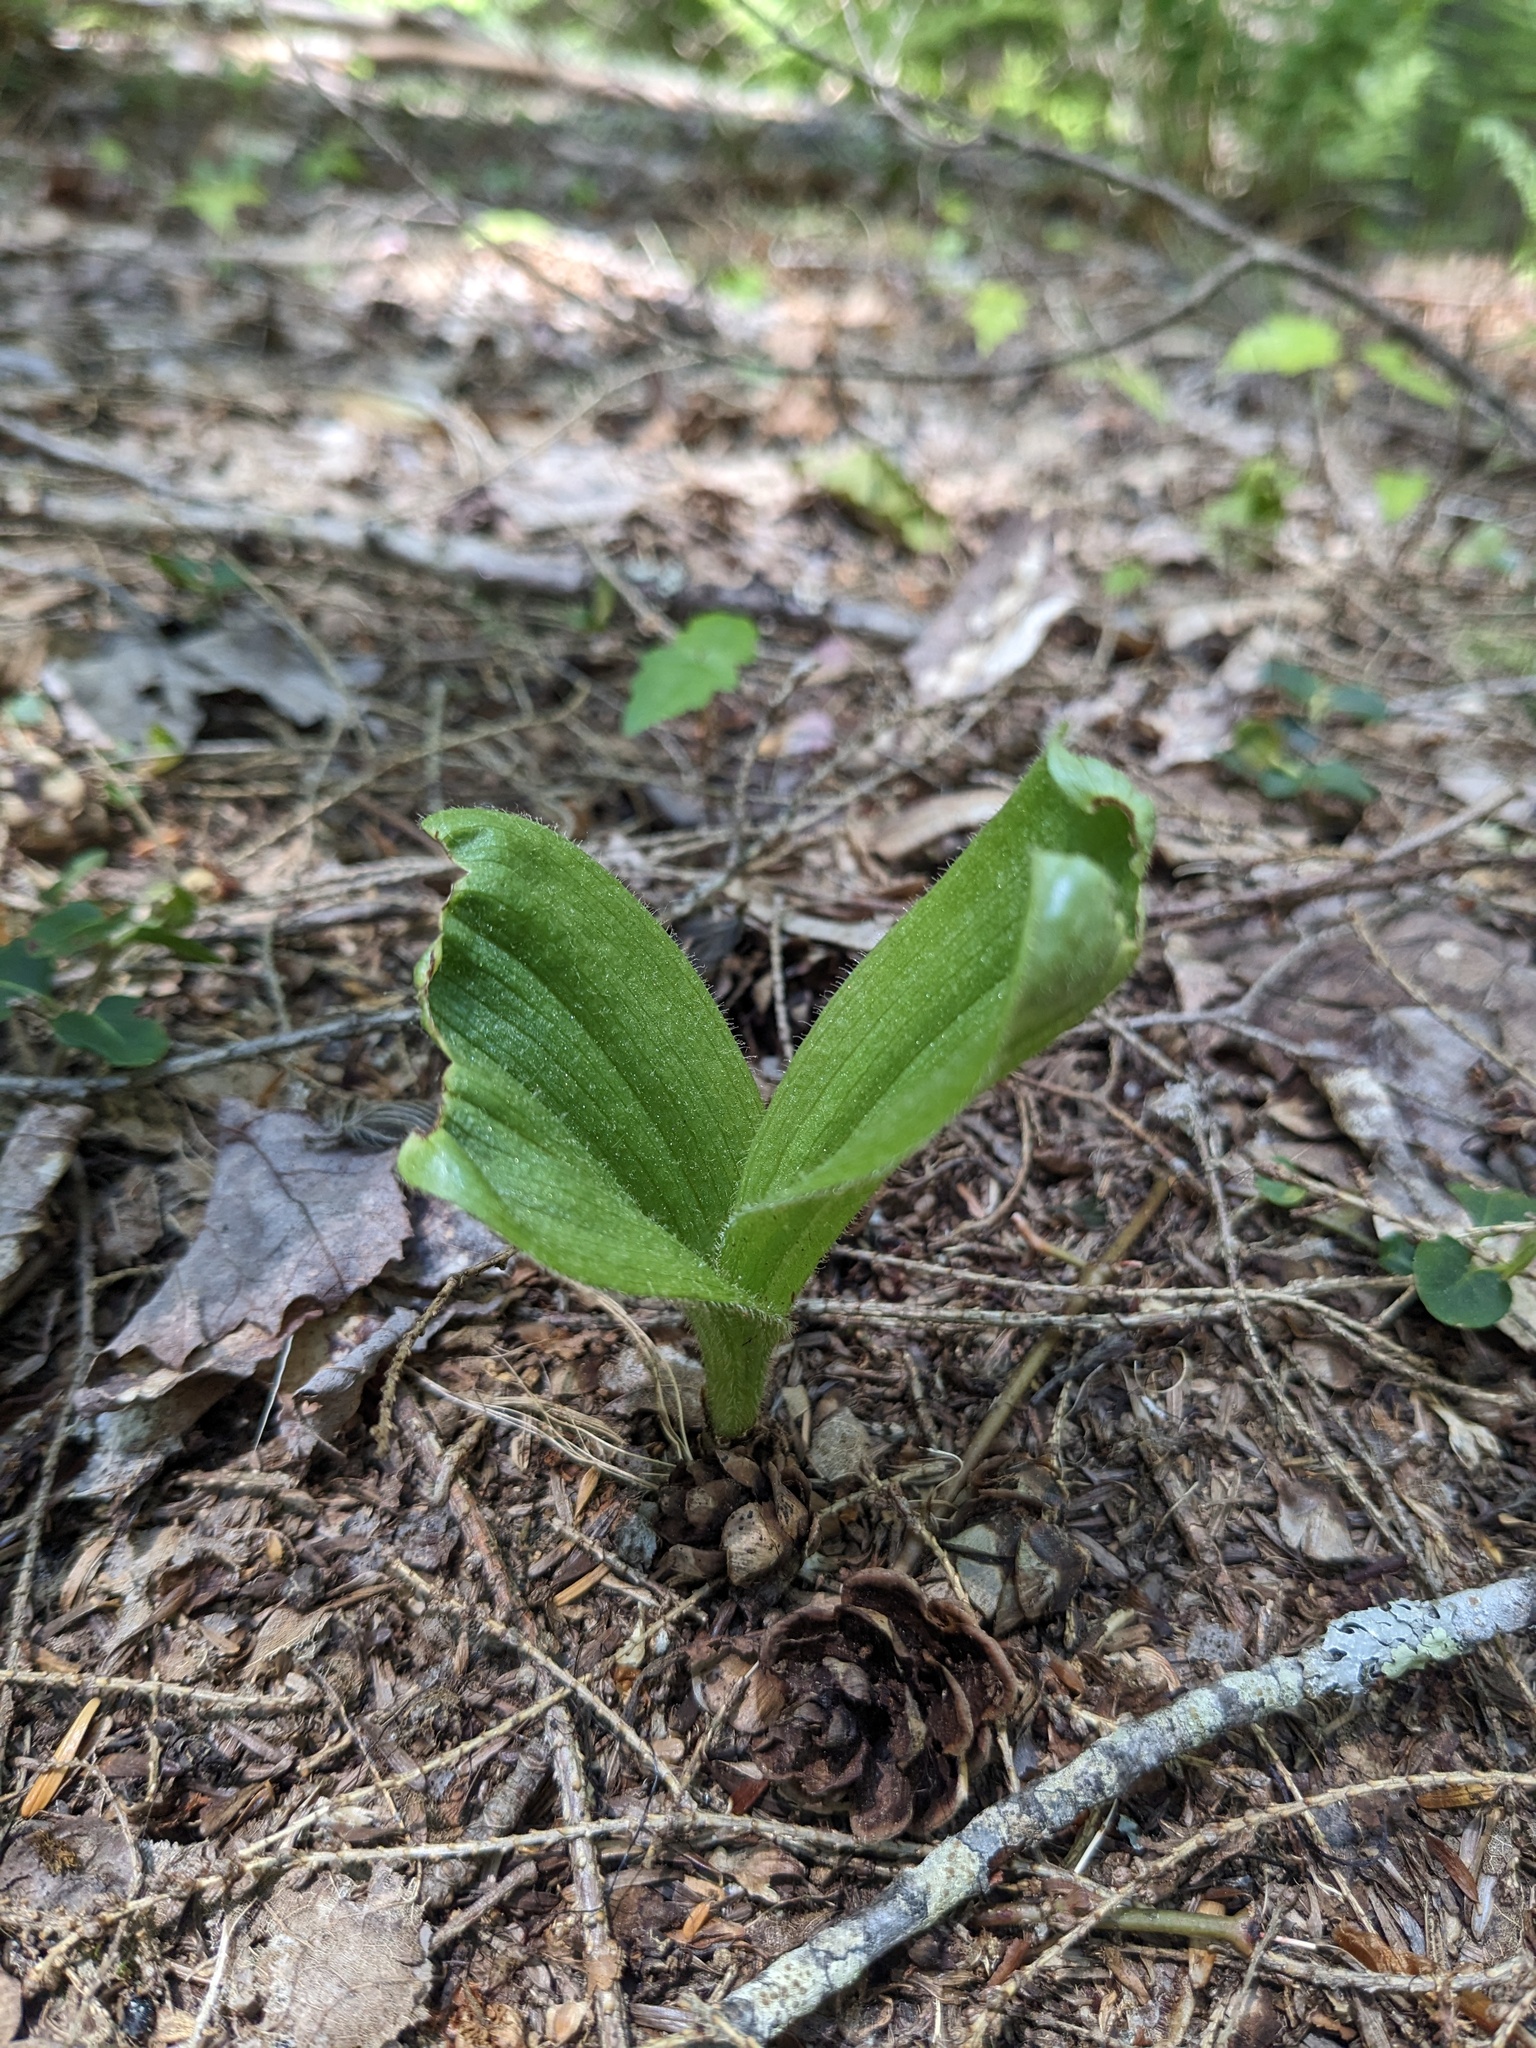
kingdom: Plantae
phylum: Tracheophyta
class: Liliopsida
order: Asparagales
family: Orchidaceae
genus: Cypripedium
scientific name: Cypripedium acaule
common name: Pink lady's-slipper
